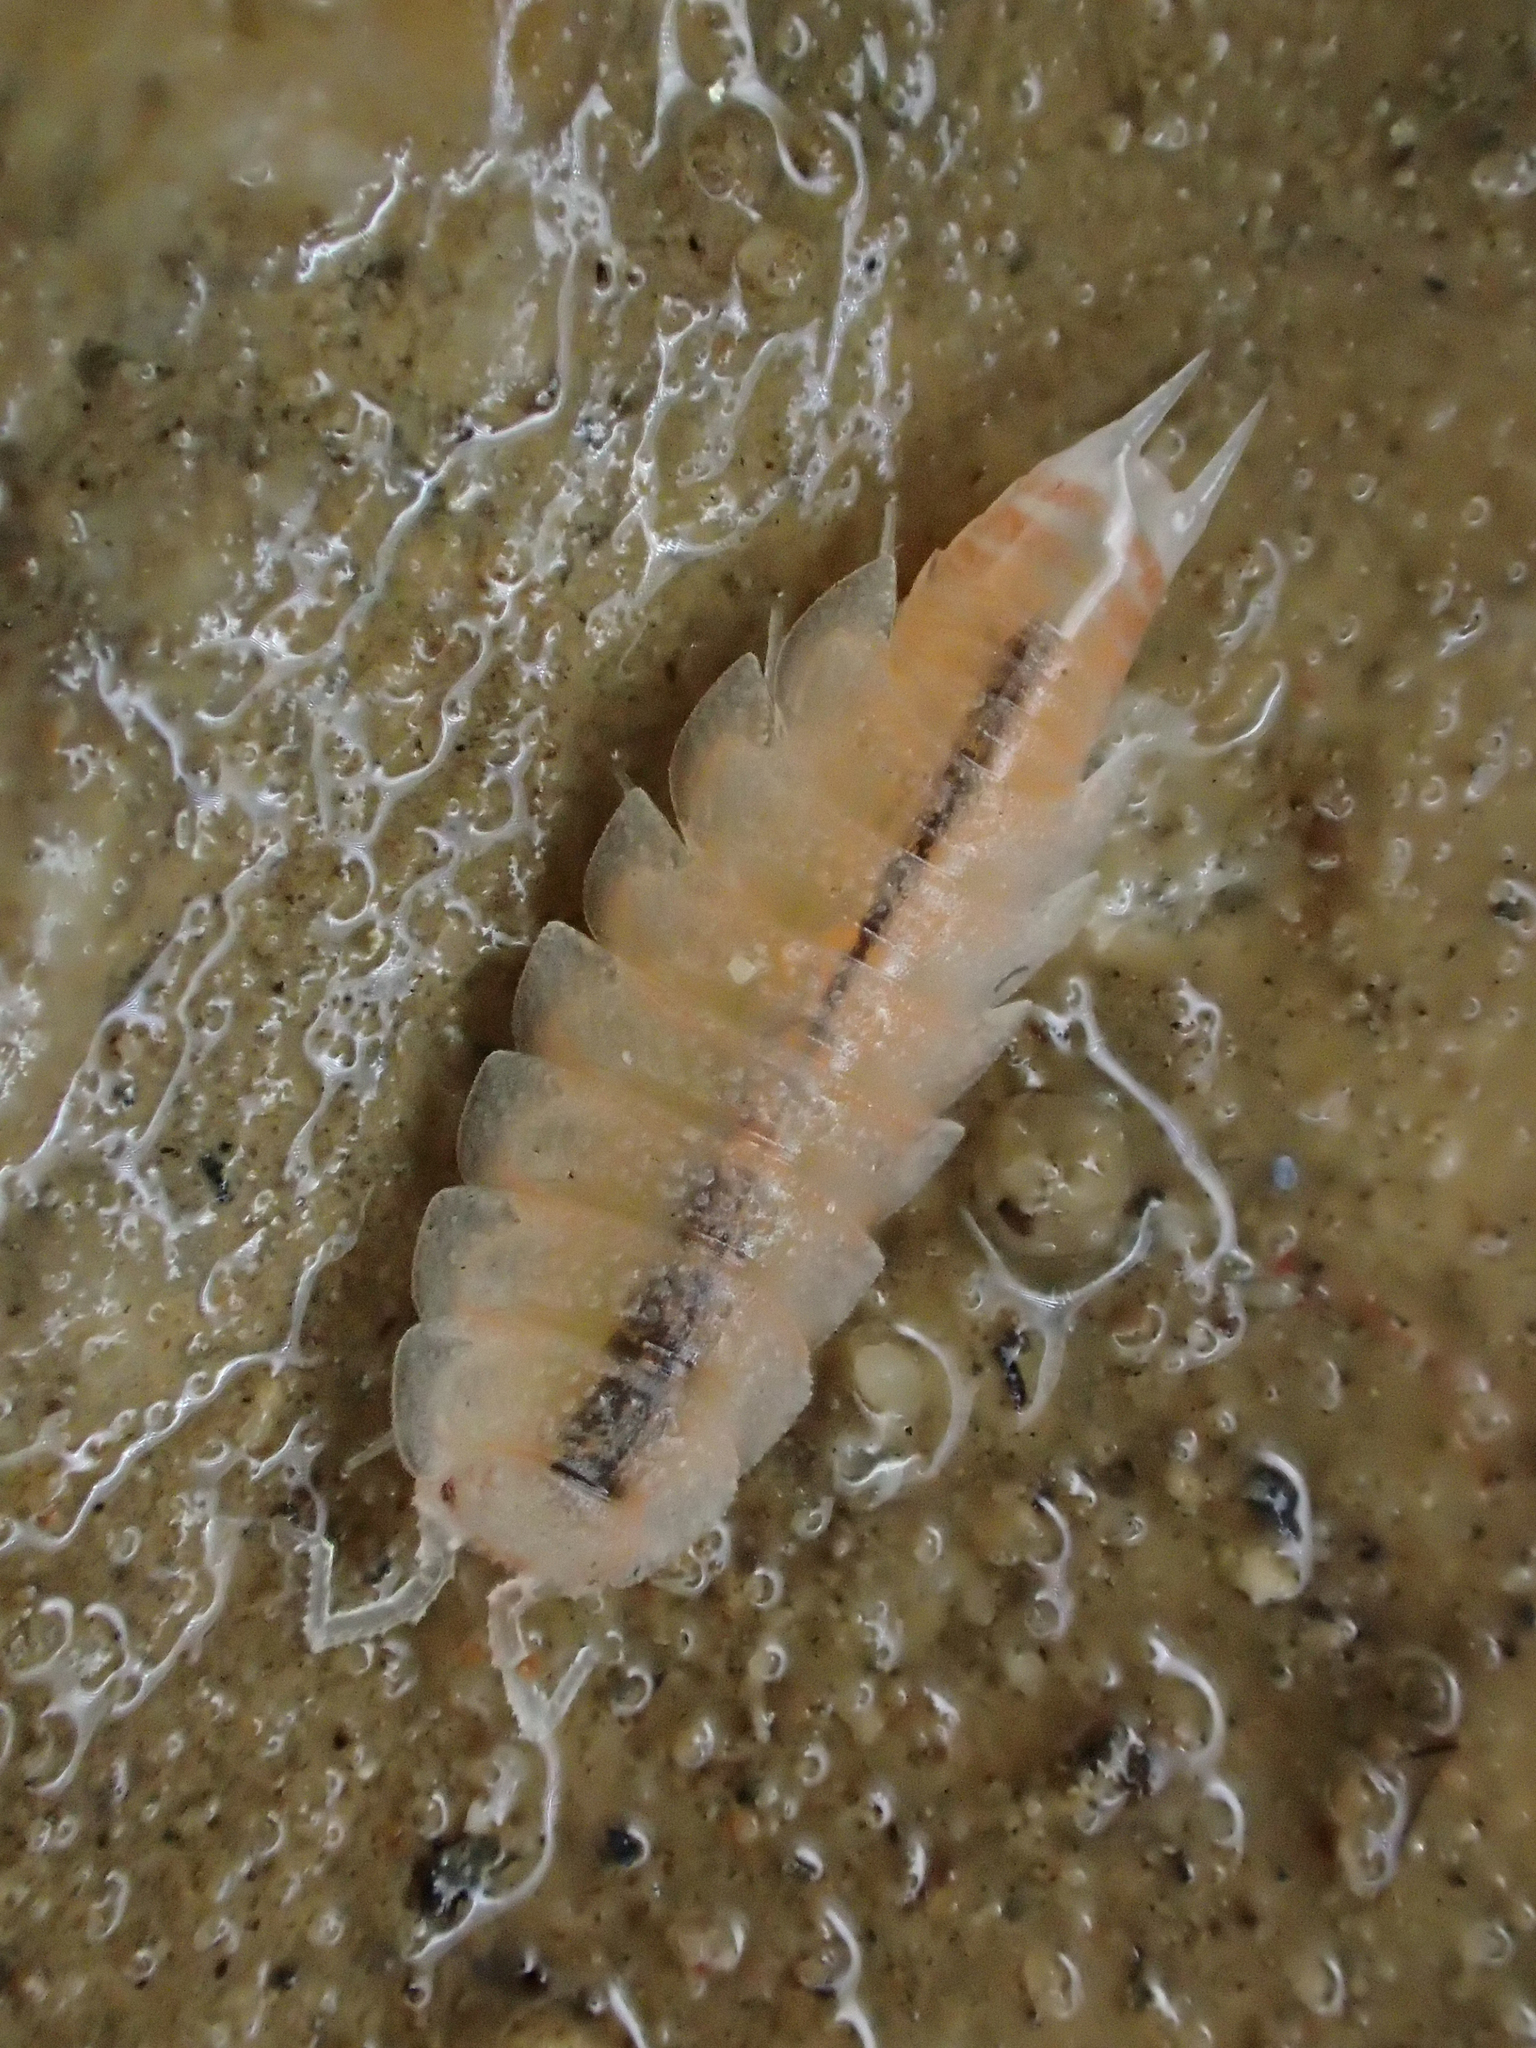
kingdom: Animalia
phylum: Arthropoda
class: Malacostraca
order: Isopoda
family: Trichoniscidae
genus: Phymatoniscus
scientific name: Phymatoniscus propinquus
